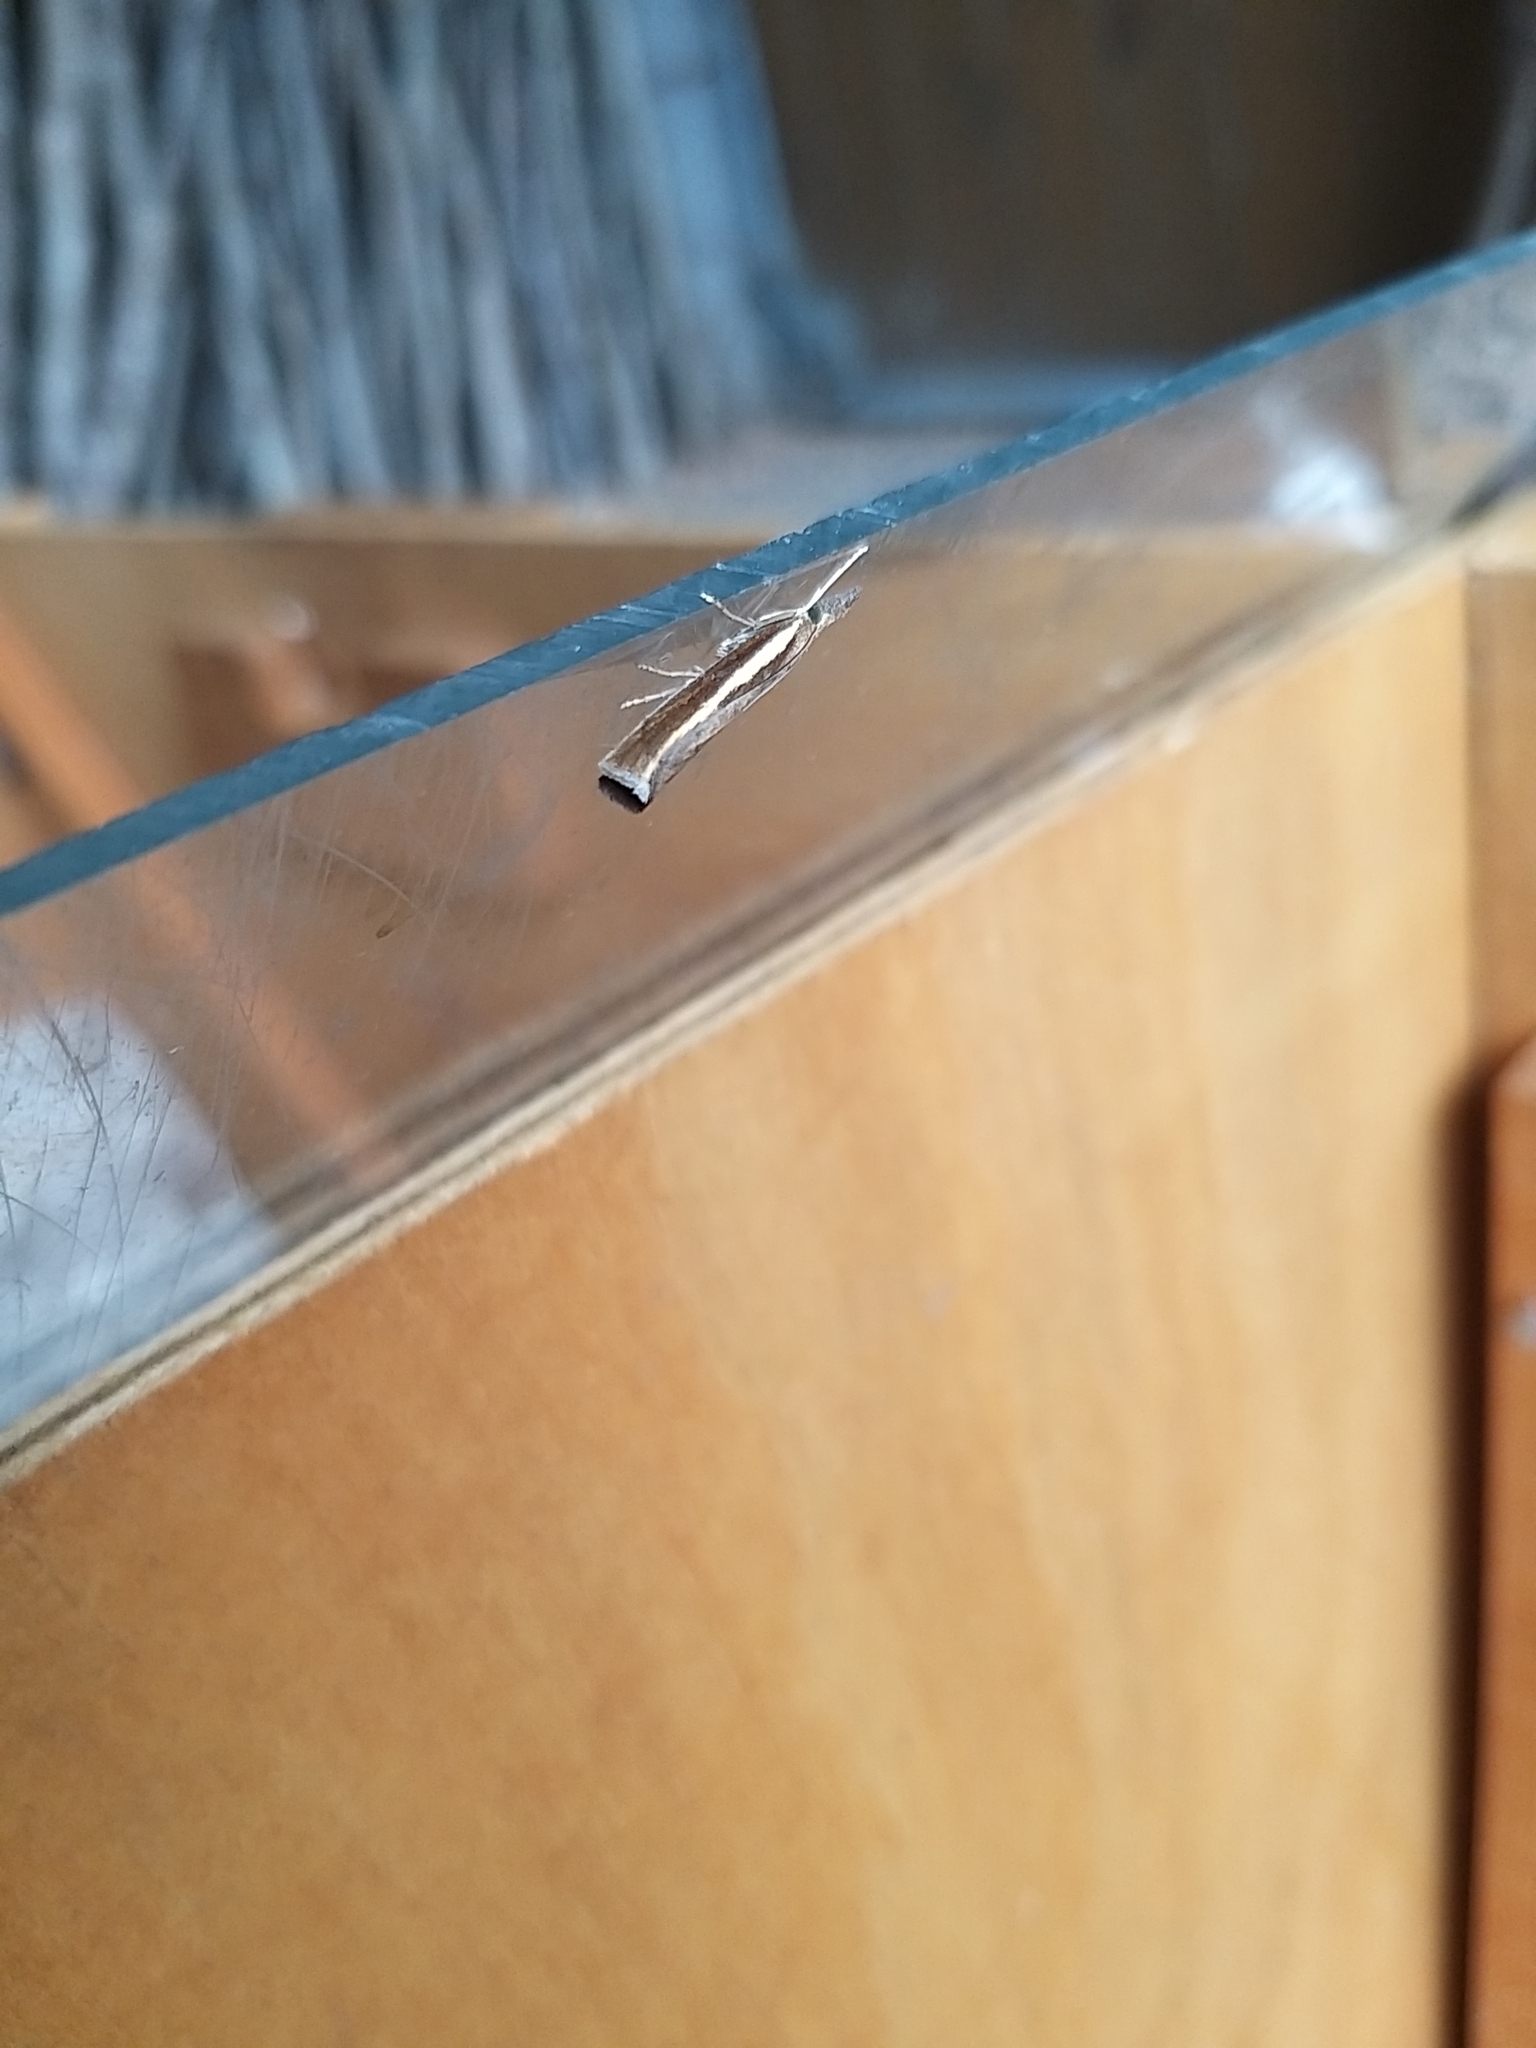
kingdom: Animalia
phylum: Arthropoda
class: Insecta
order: Lepidoptera
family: Crambidae
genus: Agriphila
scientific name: Agriphila tristellus
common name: Common grass-veneer
